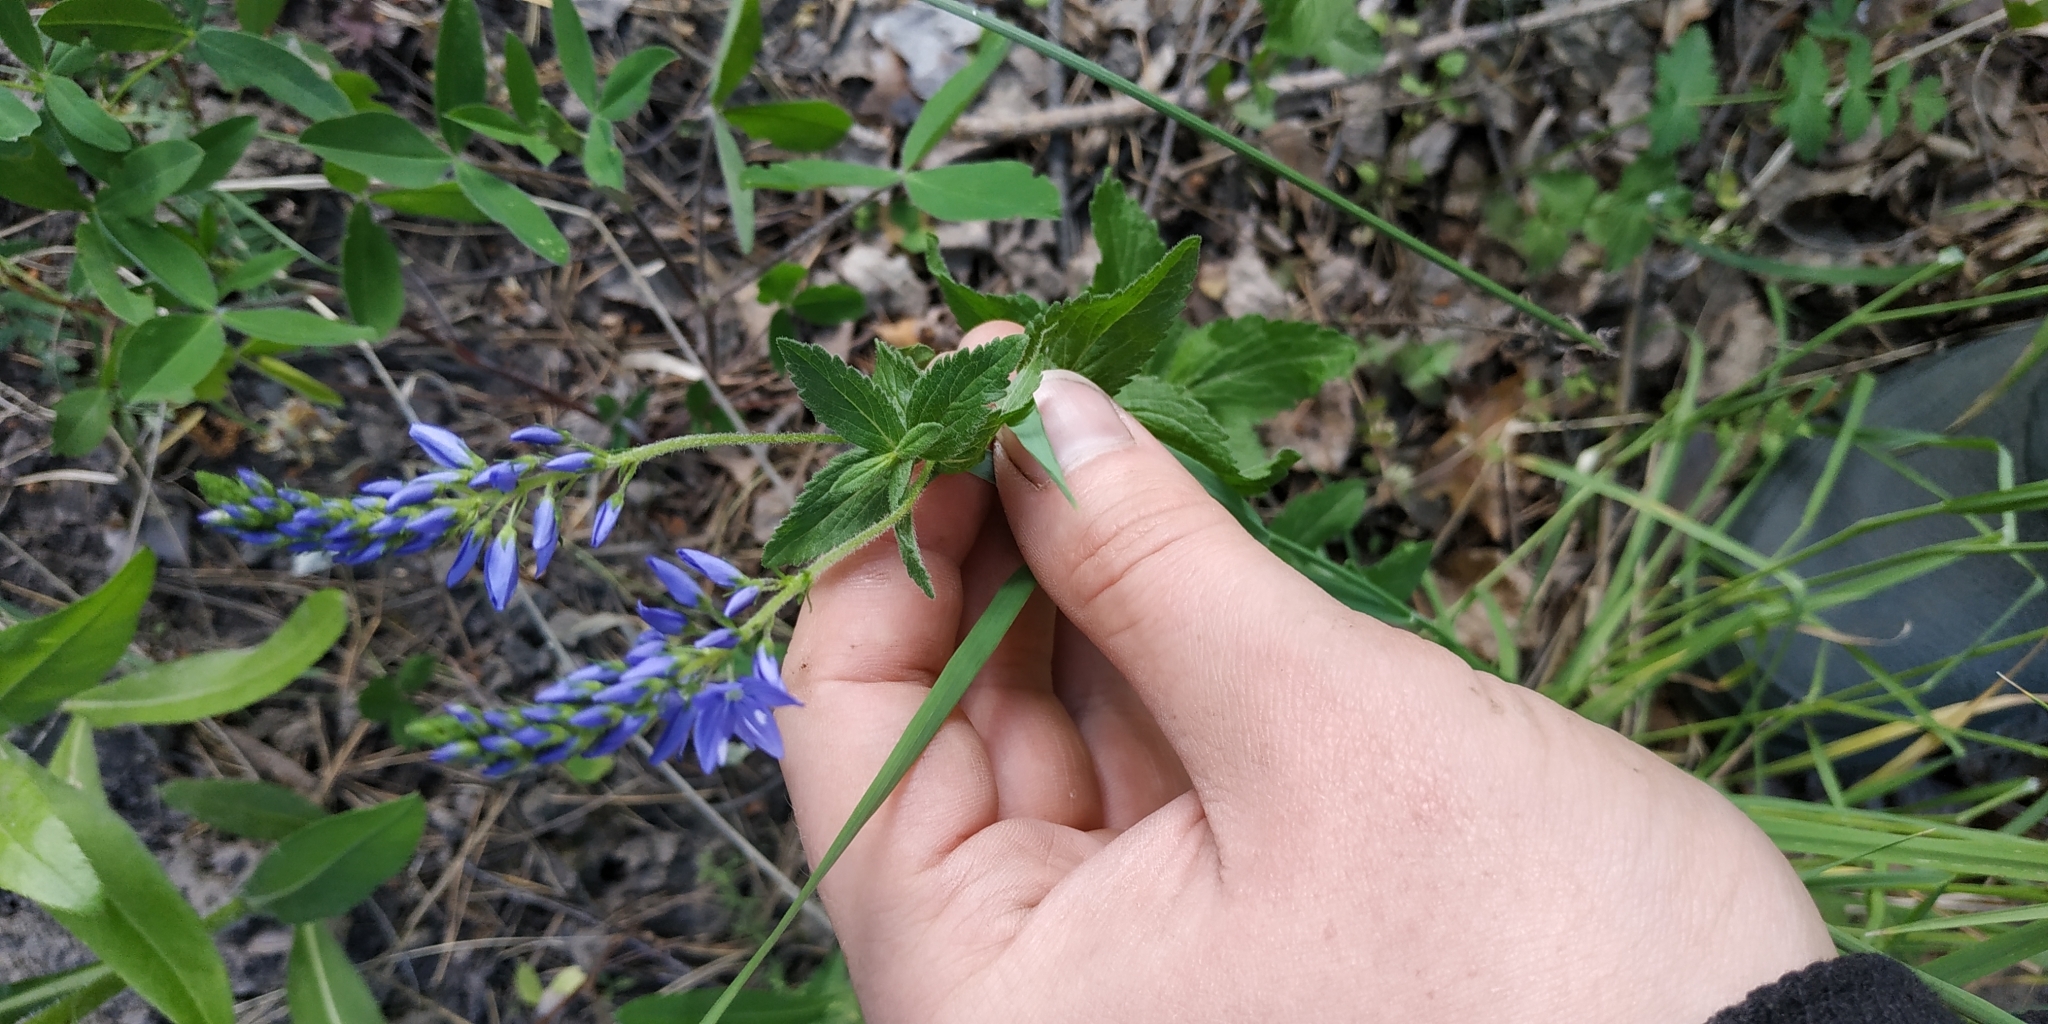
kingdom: Plantae
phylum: Tracheophyta
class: Magnoliopsida
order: Lamiales
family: Plantaginaceae
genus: Veronica
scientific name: Veronica teucrium
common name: Large speedwell
